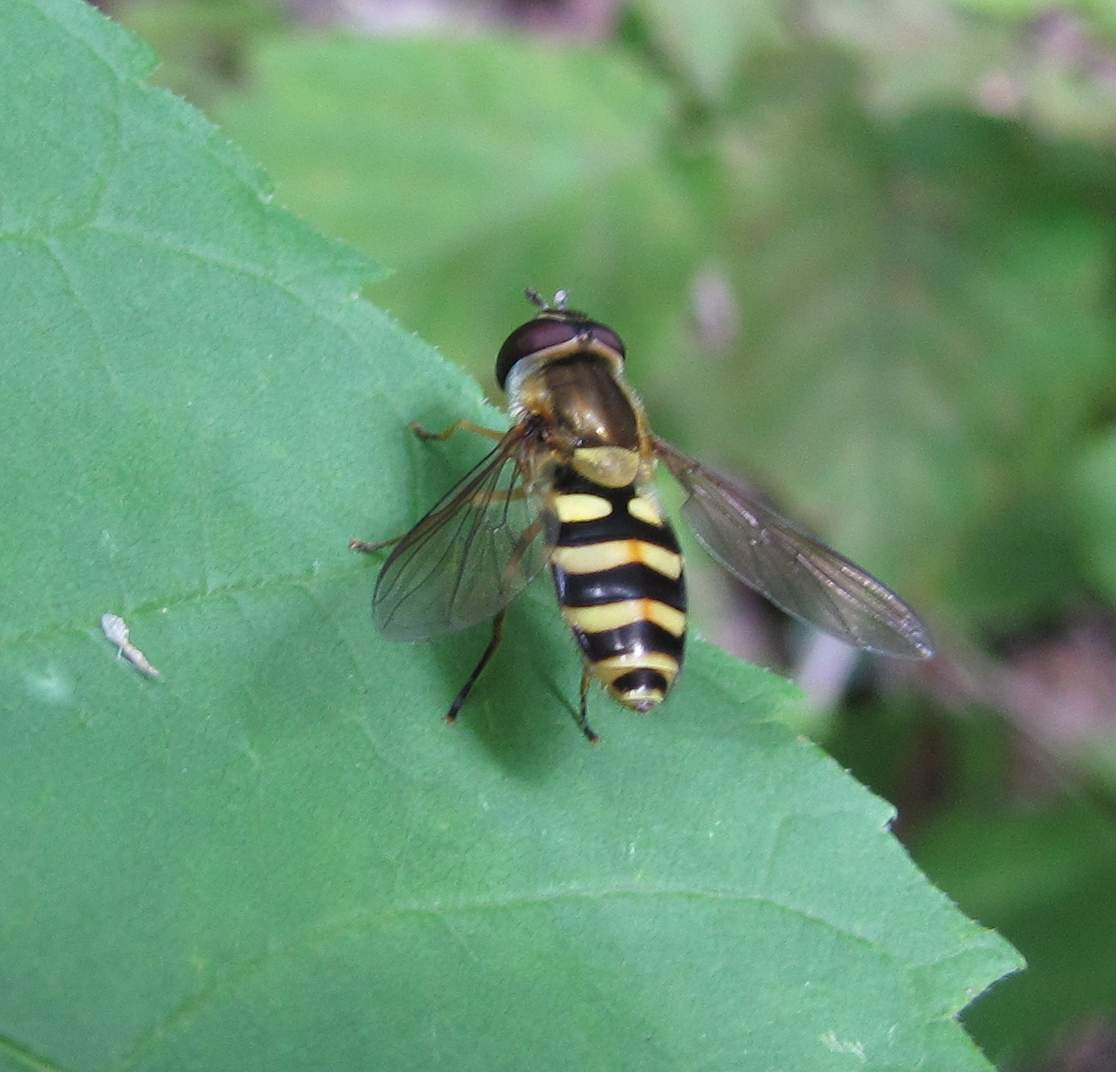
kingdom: Animalia
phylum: Arthropoda
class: Insecta
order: Diptera
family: Syrphidae
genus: Syrphus
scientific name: Syrphus
